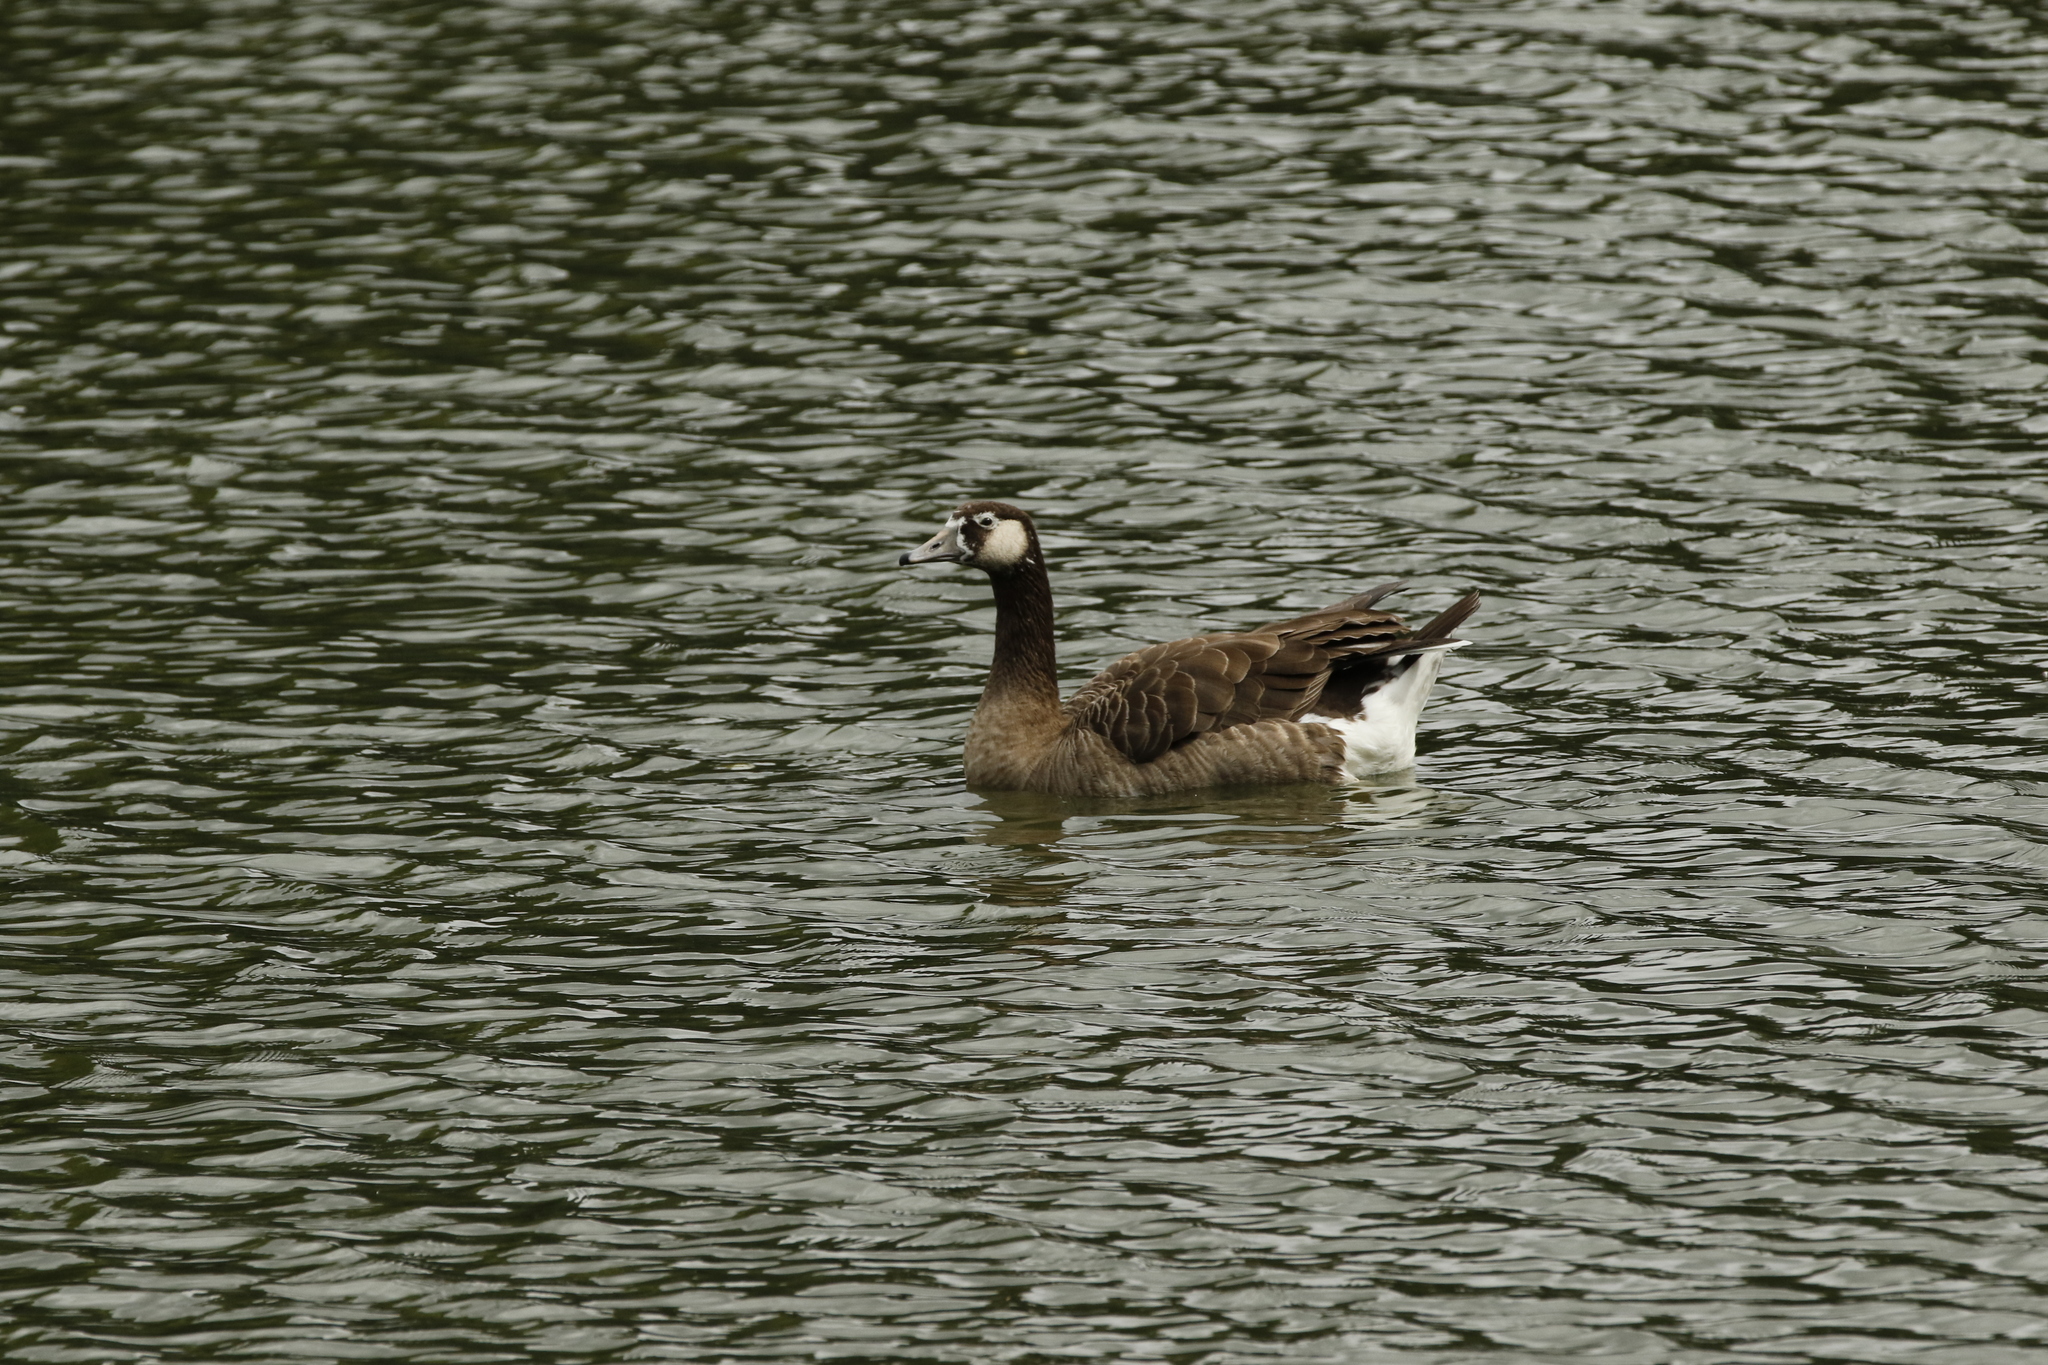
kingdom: Animalia
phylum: Chordata
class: Aves
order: Anseriformes
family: Anatidae
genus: Branta
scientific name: Branta canadensis
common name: Canada goose
